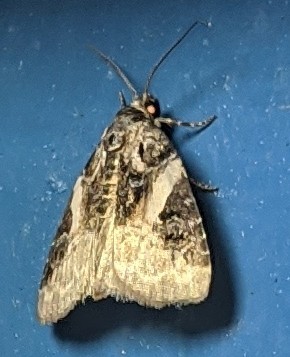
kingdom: Animalia
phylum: Arthropoda
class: Insecta
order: Lepidoptera
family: Noctuidae
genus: Pseudeustrotia
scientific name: Pseudeustrotia carneola
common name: Pink-barred lithacodia moth
